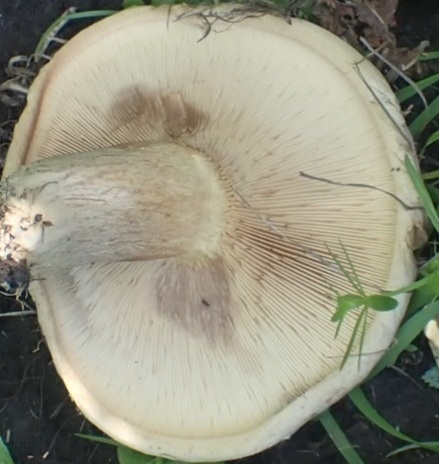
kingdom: Fungi
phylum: Basidiomycota
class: Agaricomycetes
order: Boletales
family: Paxillaceae
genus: Paxillus
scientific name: Paxillus involutus
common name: Brown roll rim
